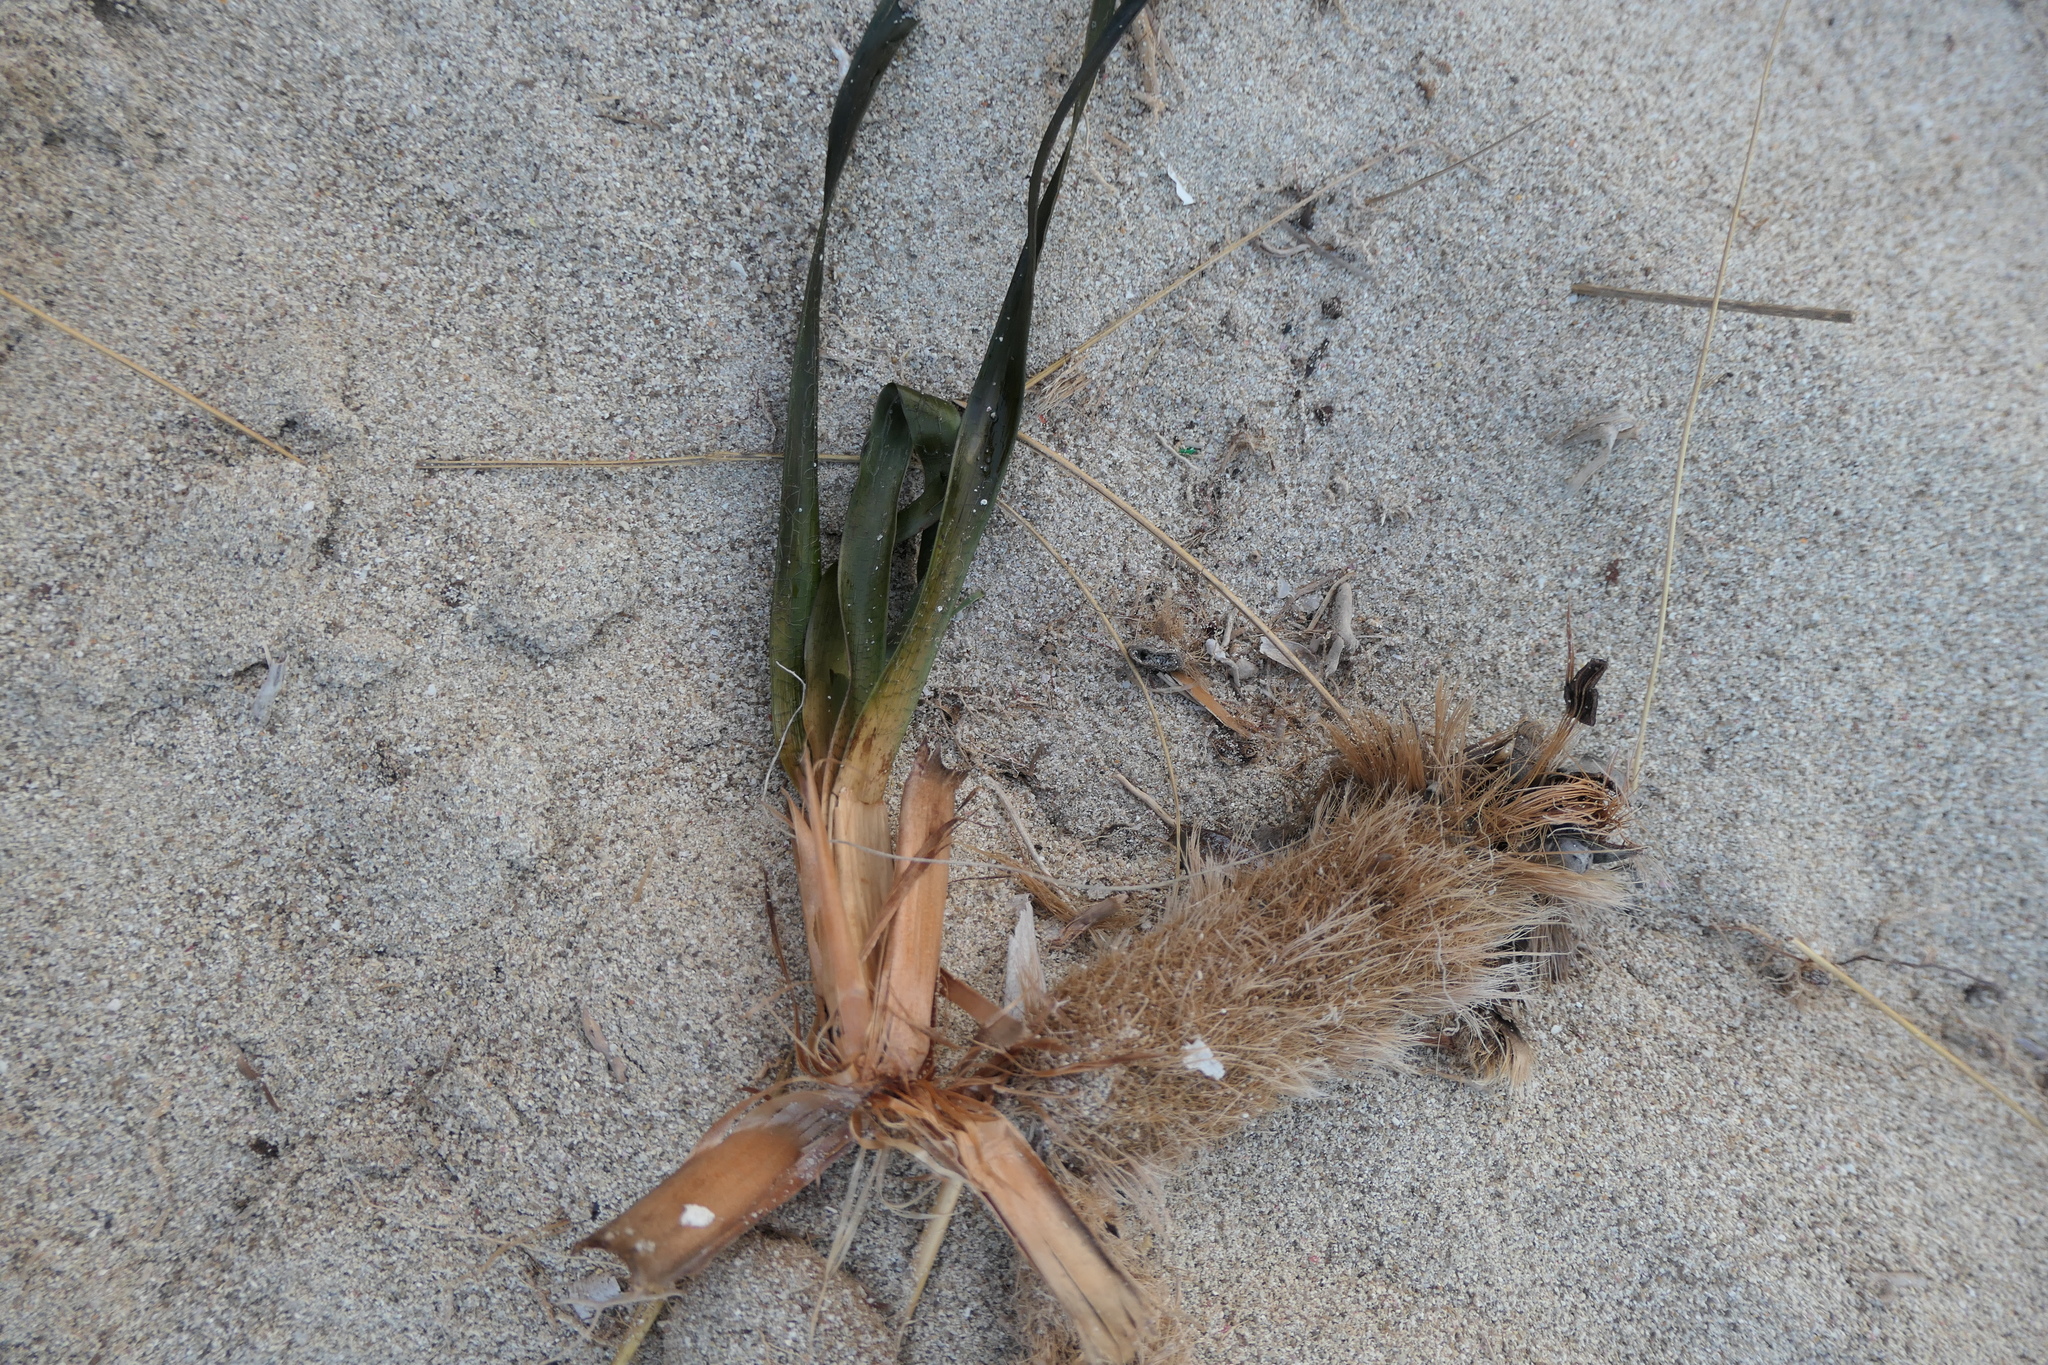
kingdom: Plantae
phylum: Tracheophyta
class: Liliopsida
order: Alismatales
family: Posidoniaceae
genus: Posidonia
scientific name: Posidonia oceanica
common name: Mediterranean tapeweed
